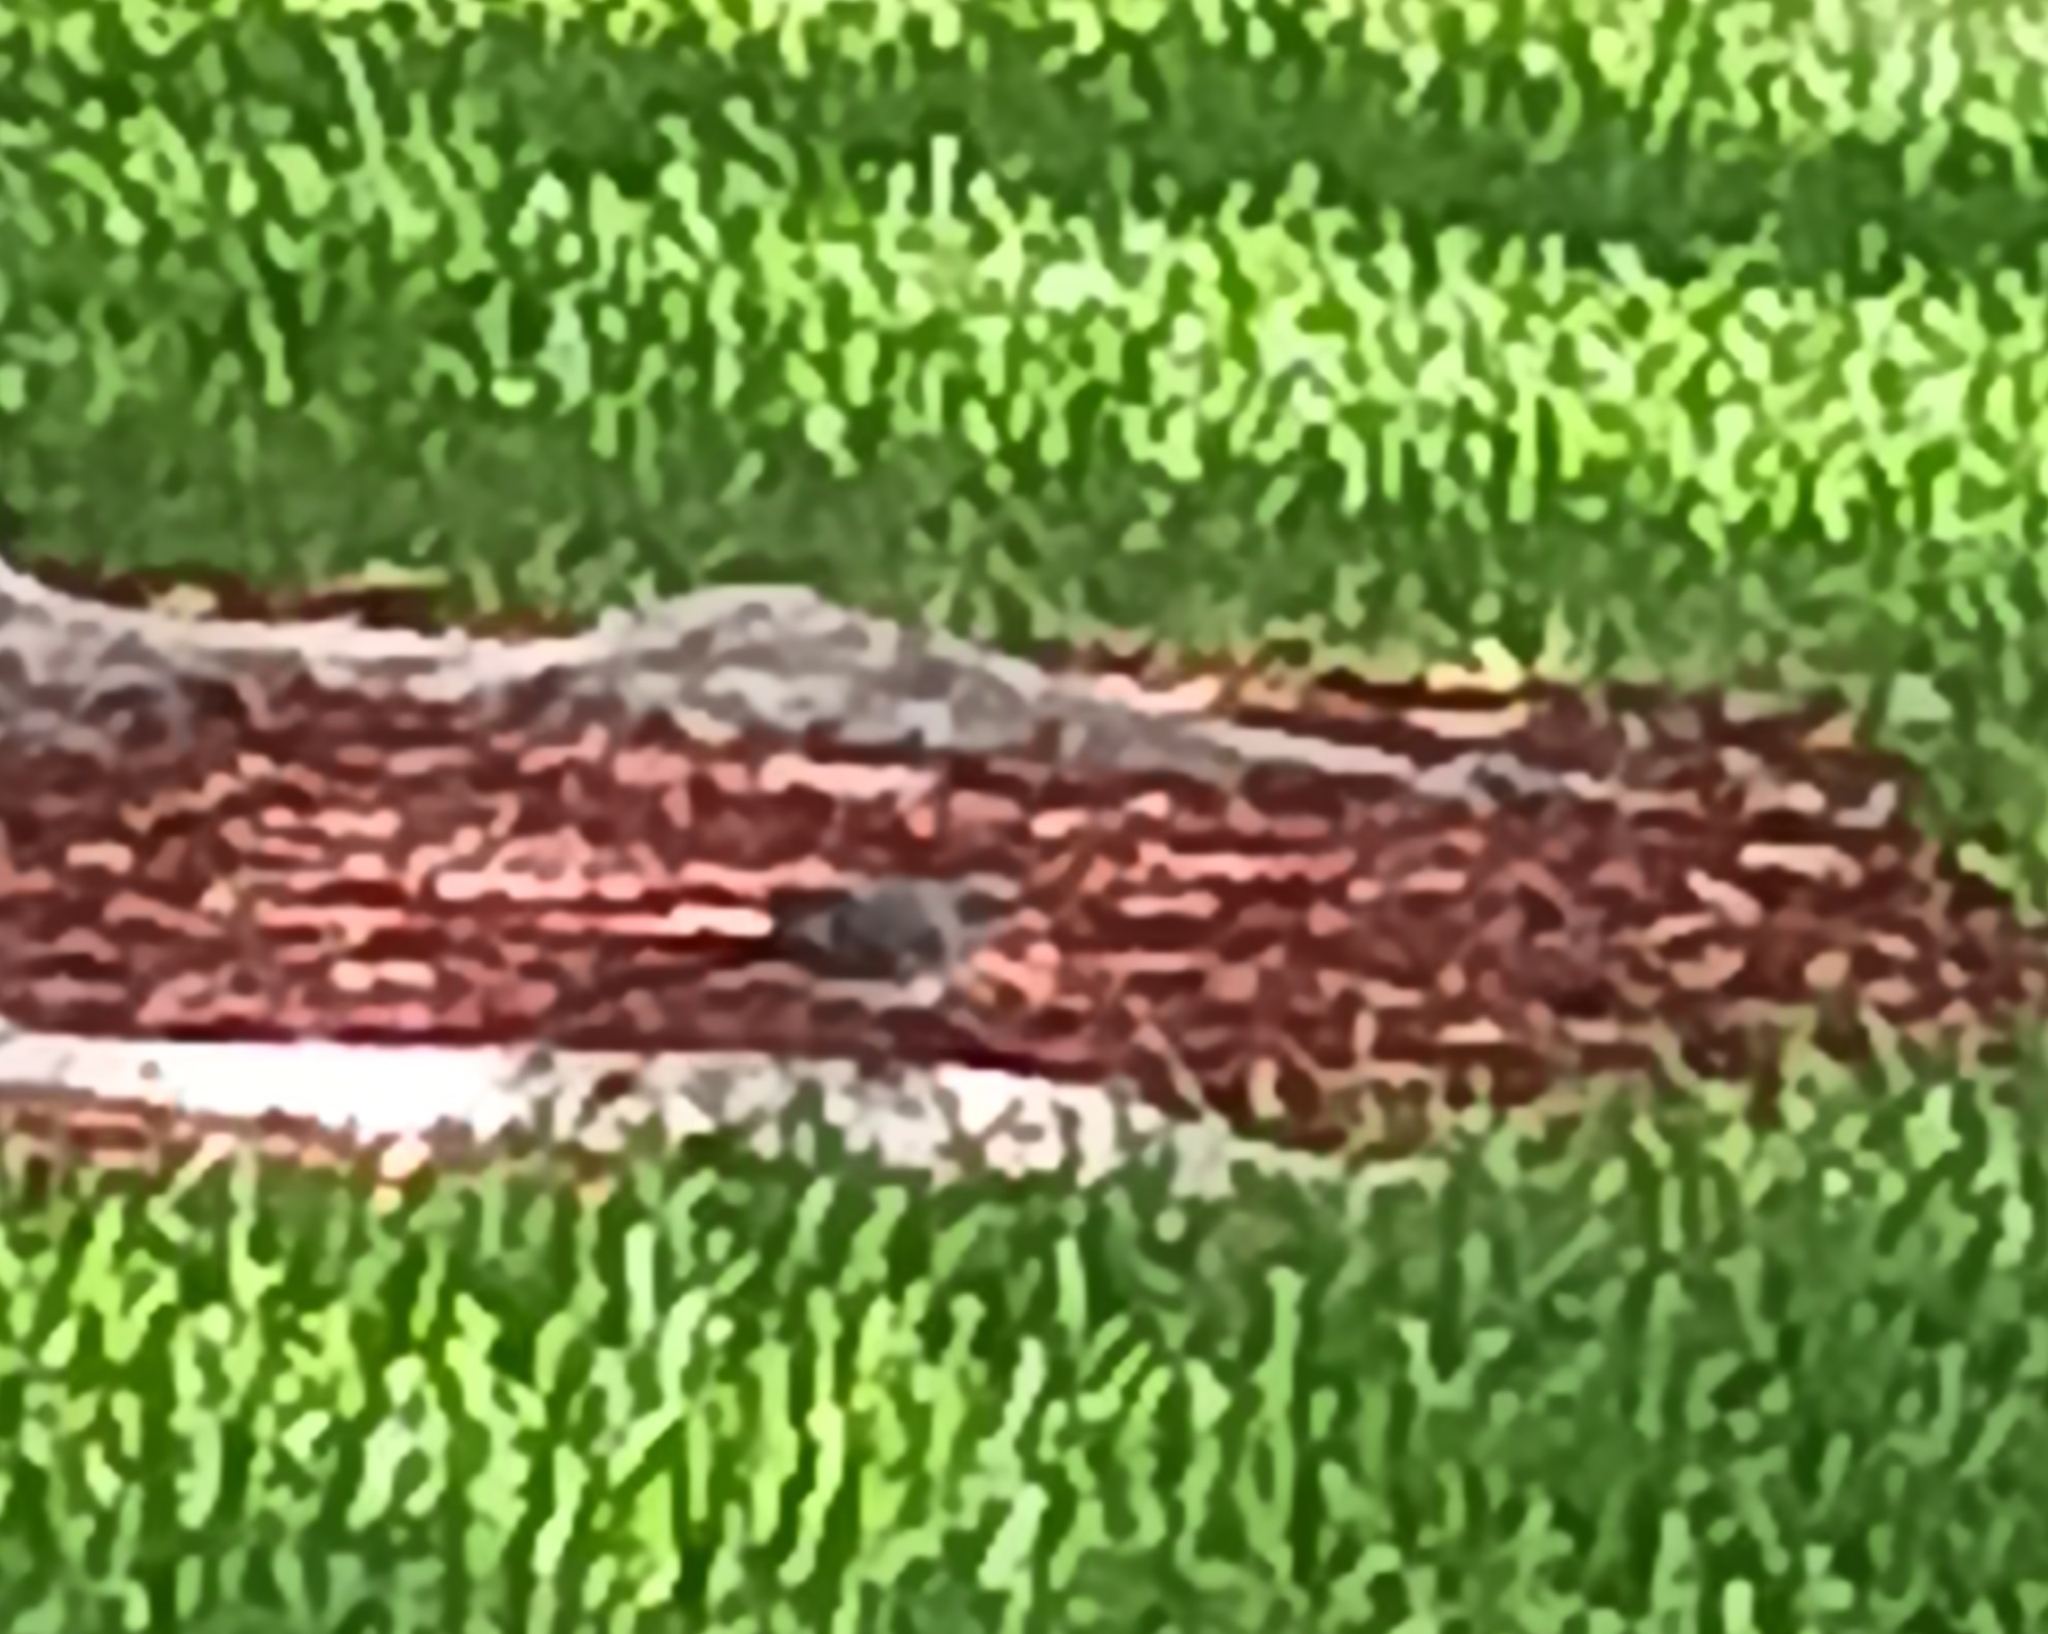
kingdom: Animalia
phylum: Chordata
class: Aves
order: Passeriformes
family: Mimidae
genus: Mimus
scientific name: Mimus polyglottos
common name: Northern mockingbird
